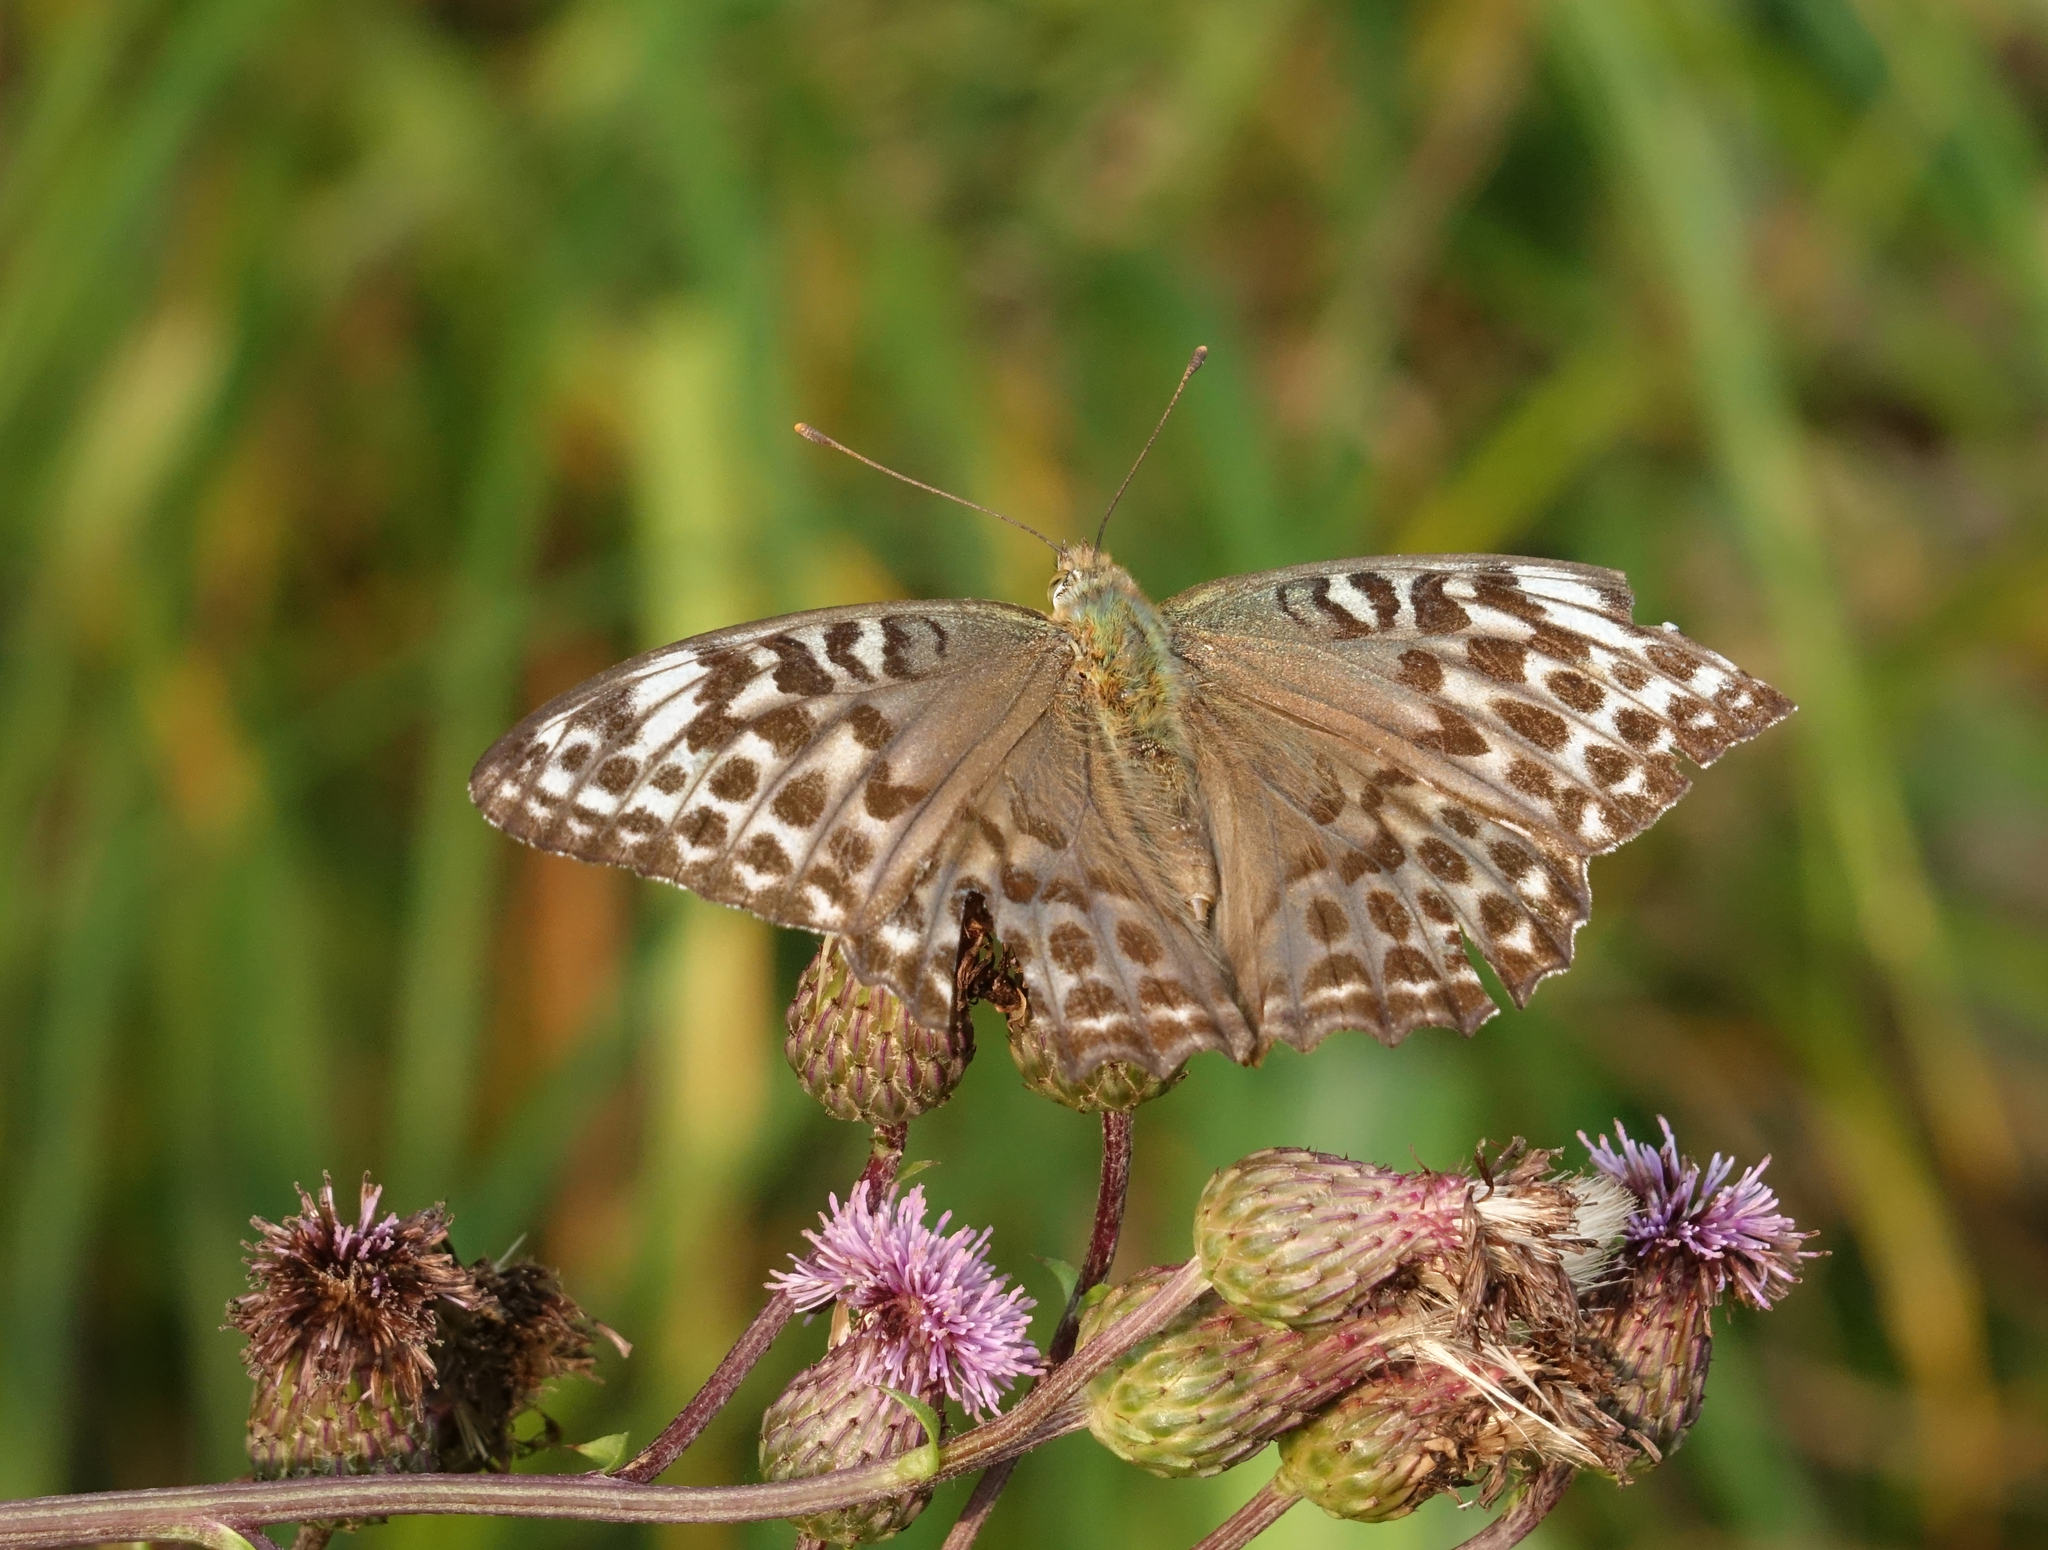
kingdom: Plantae
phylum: Tracheophyta
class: Magnoliopsida
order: Asterales
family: Asteraceae
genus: Cirsium
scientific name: Cirsium arvense
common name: Creeping thistle
